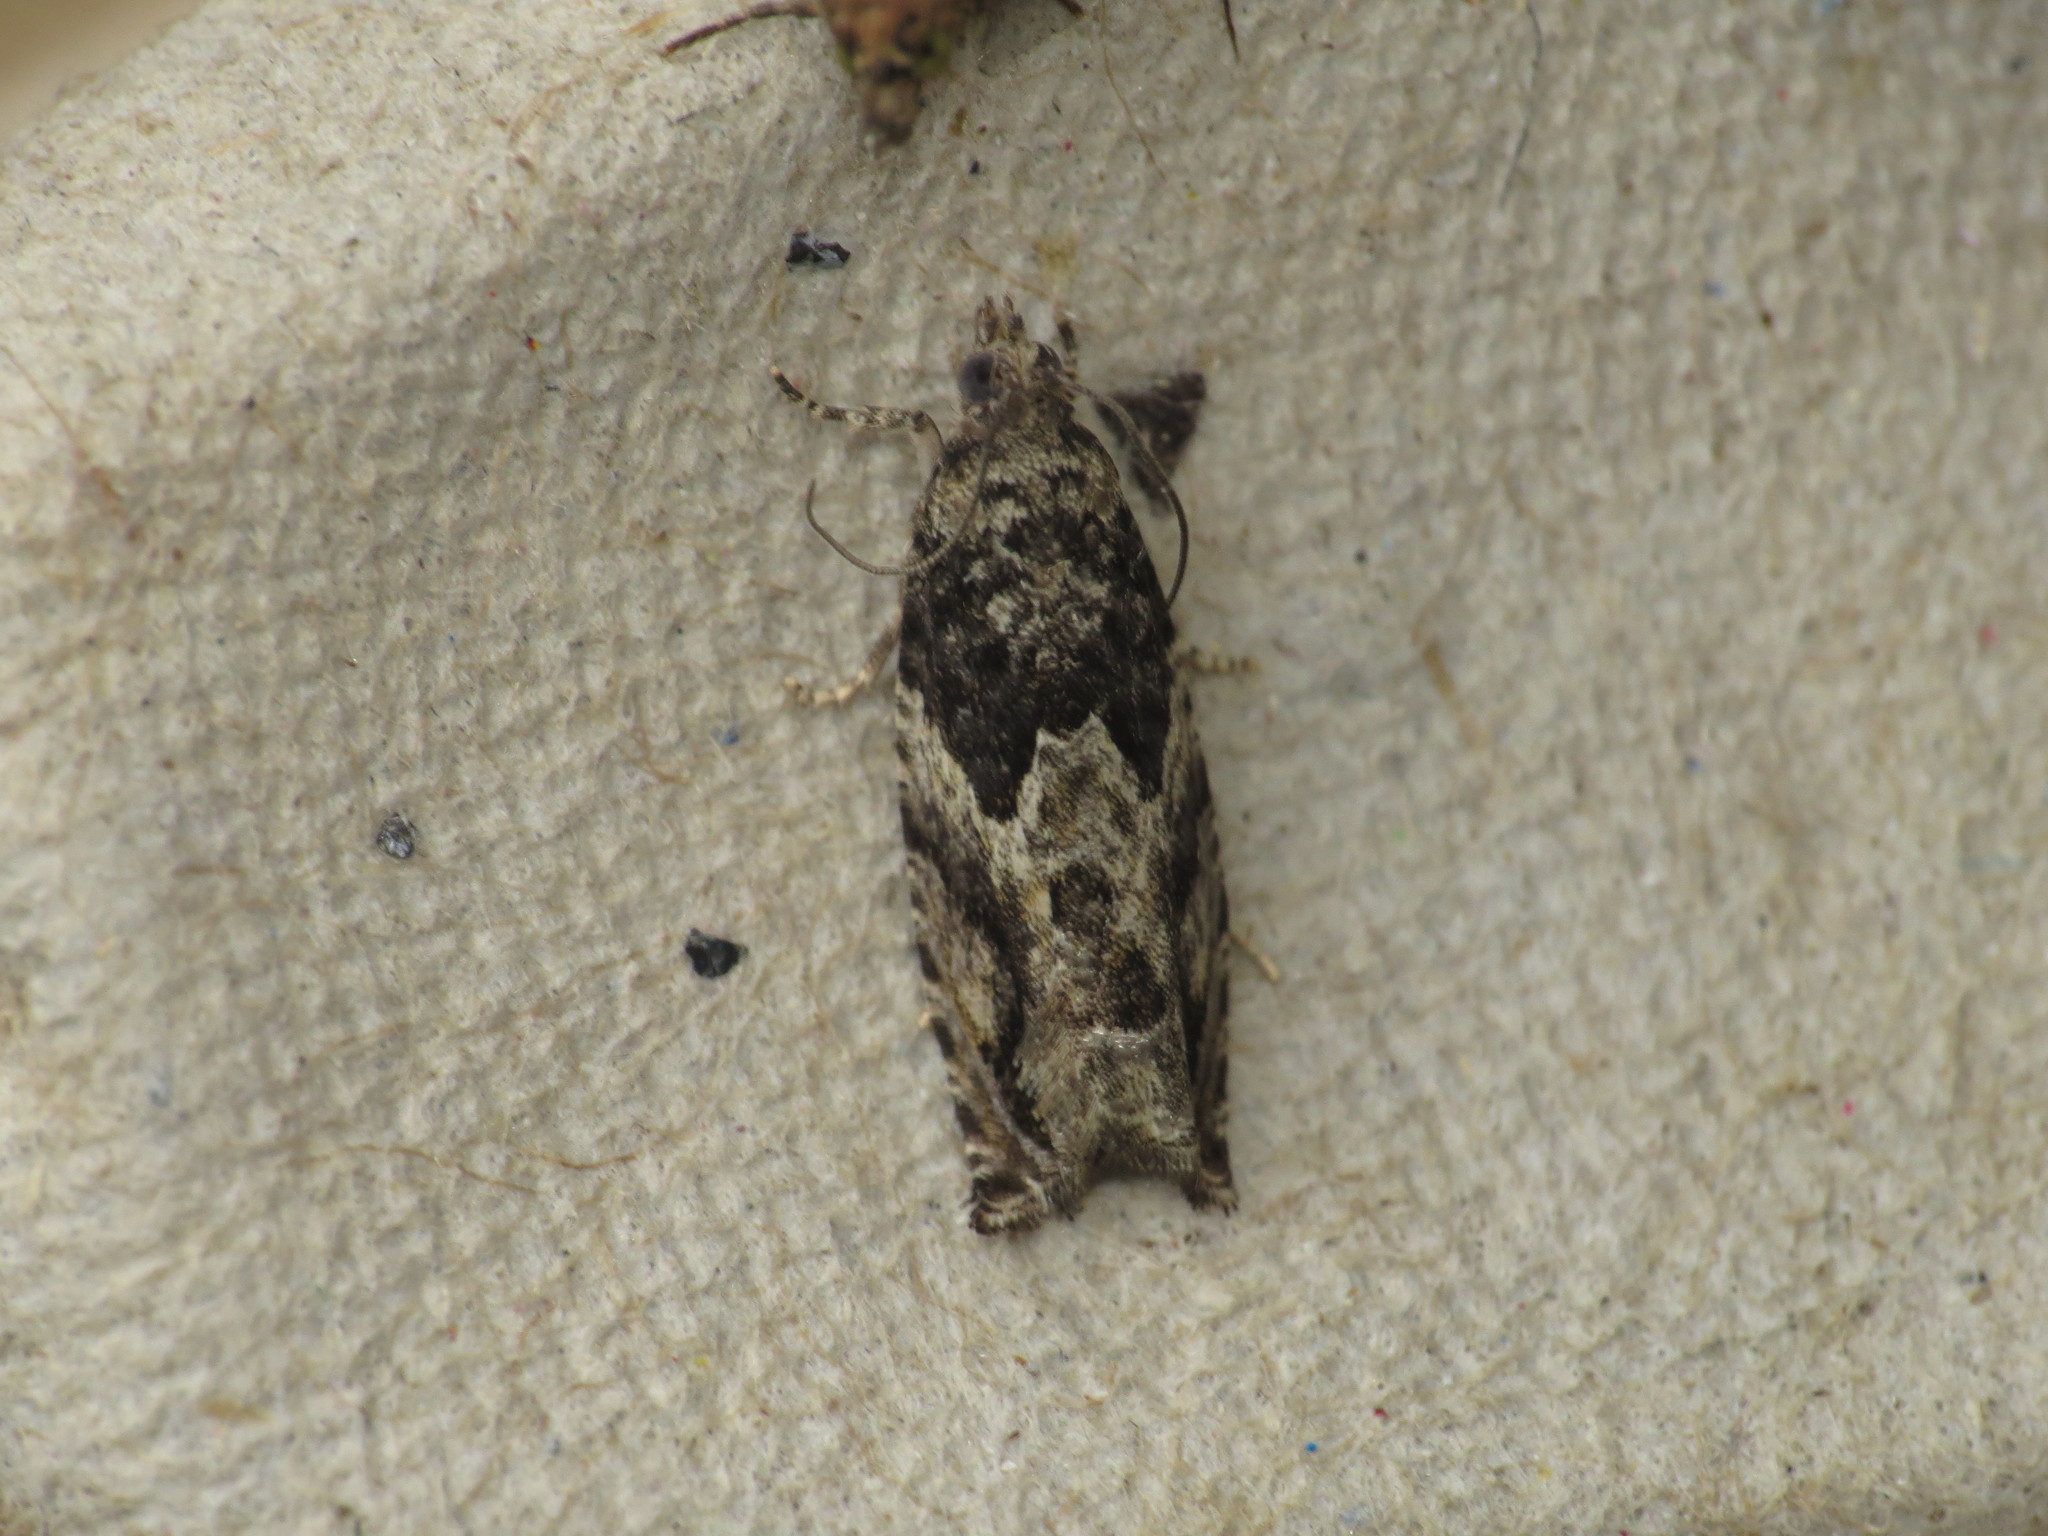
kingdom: Animalia
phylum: Arthropoda
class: Insecta
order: Lepidoptera
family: Tortricidae
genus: Epinotia
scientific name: Epinotia nisella
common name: Grey poplar bell
